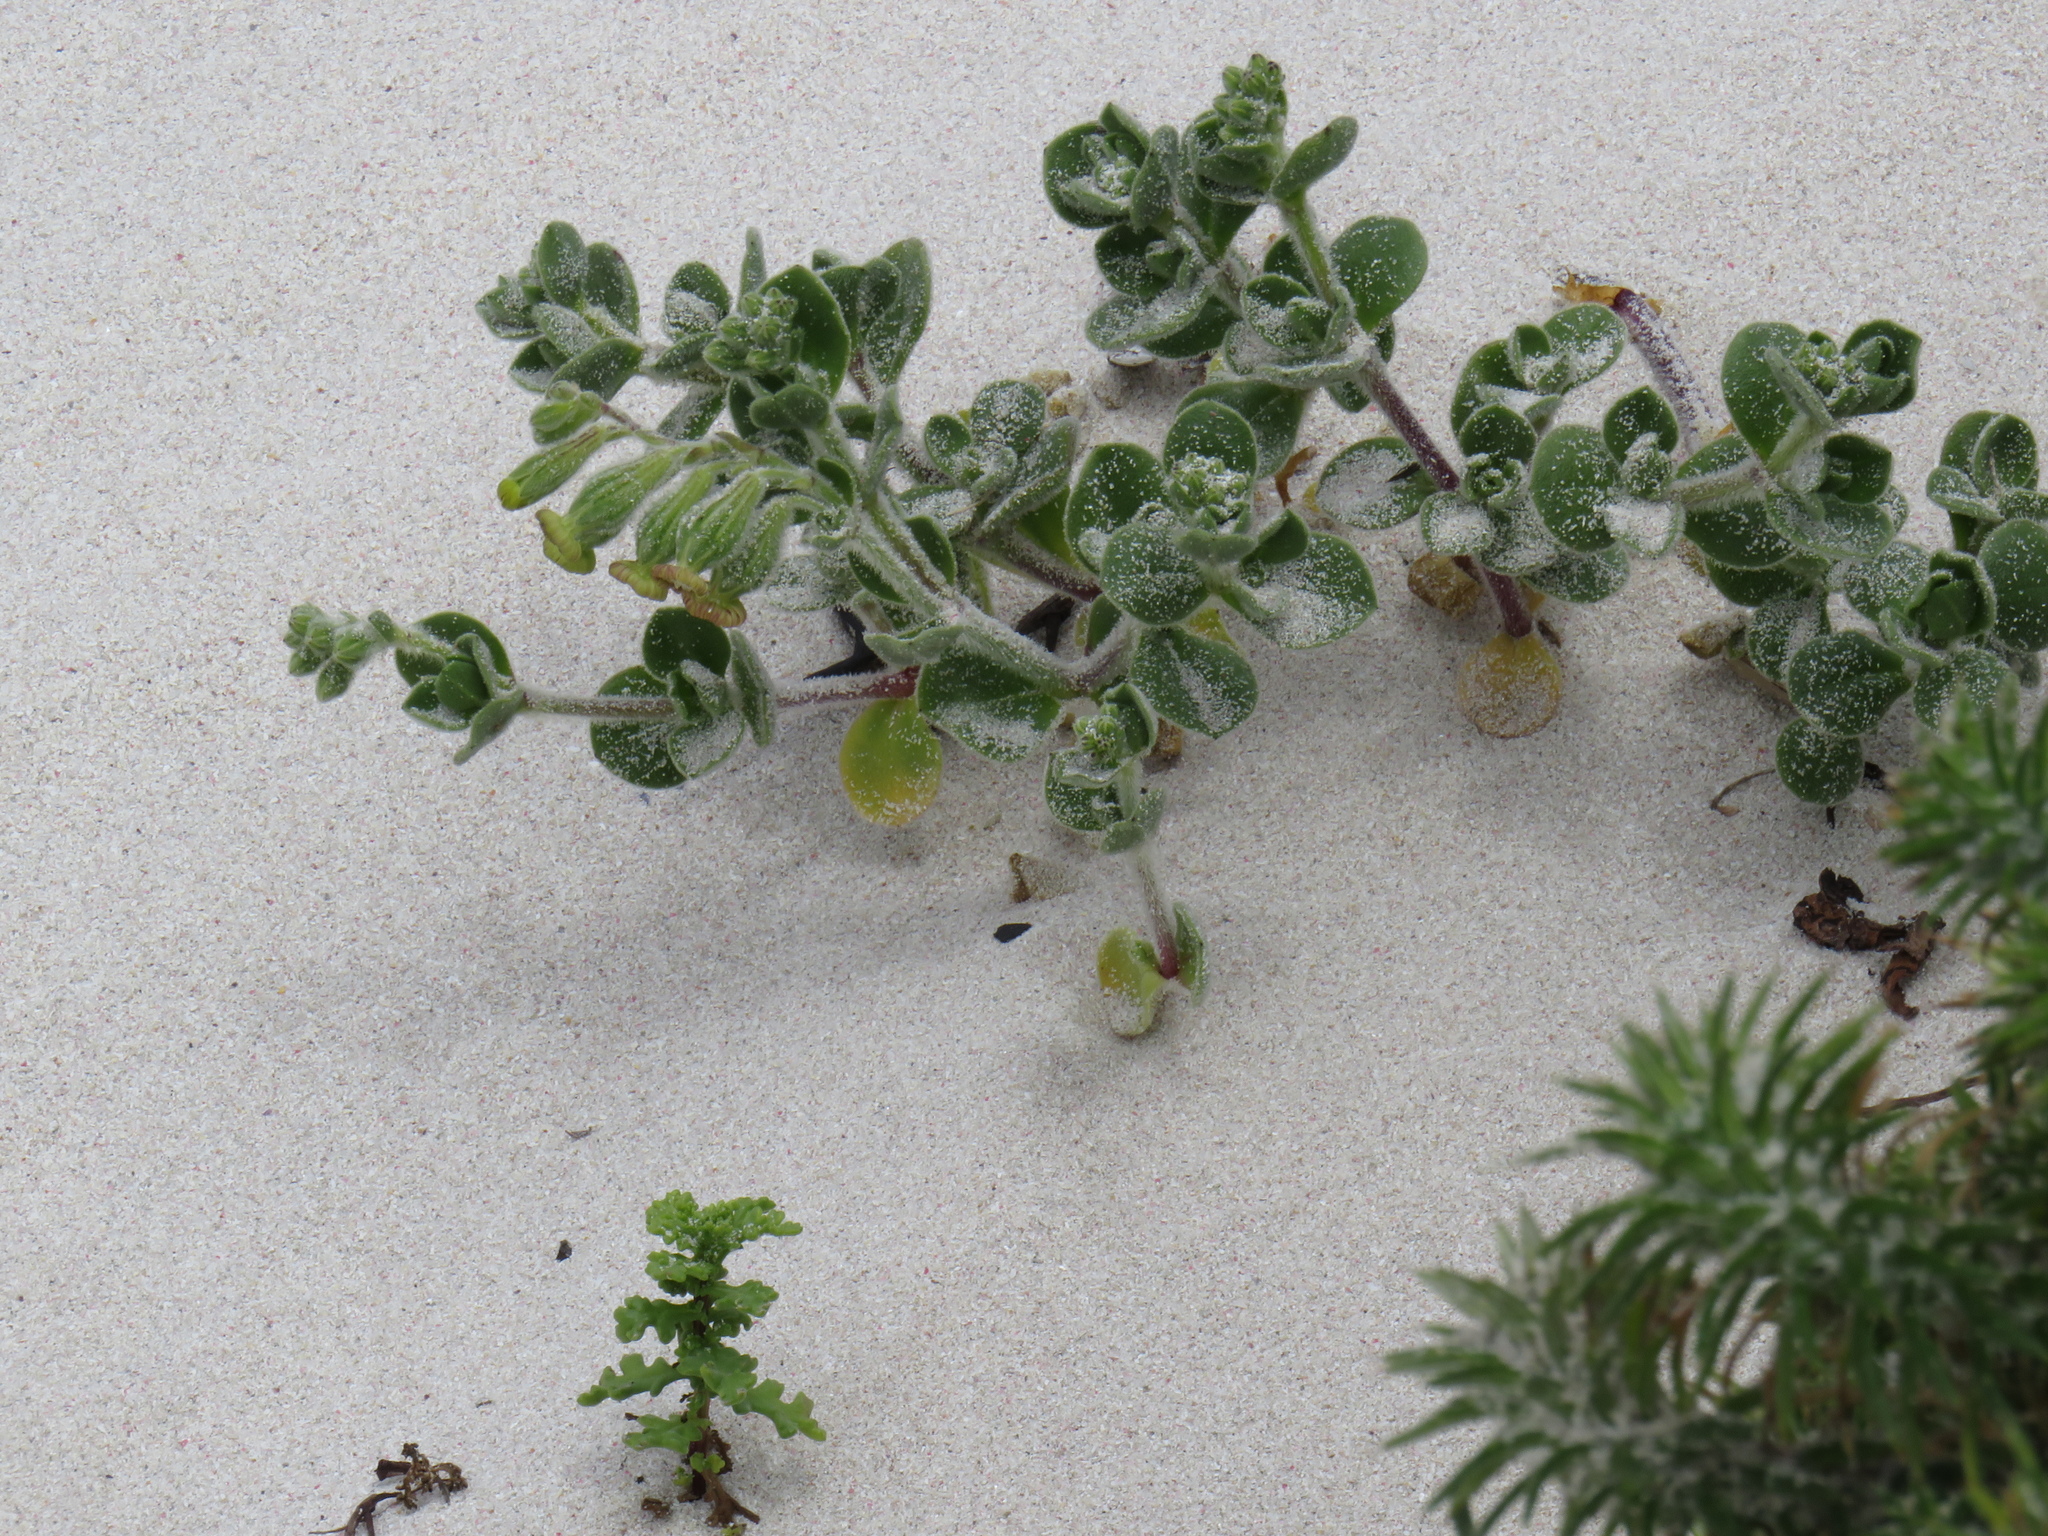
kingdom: Plantae
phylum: Tracheophyta
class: Magnoliopsida
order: Caryophyllales
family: Caryophyllaceae
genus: Silene
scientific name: Silene crassifolia
